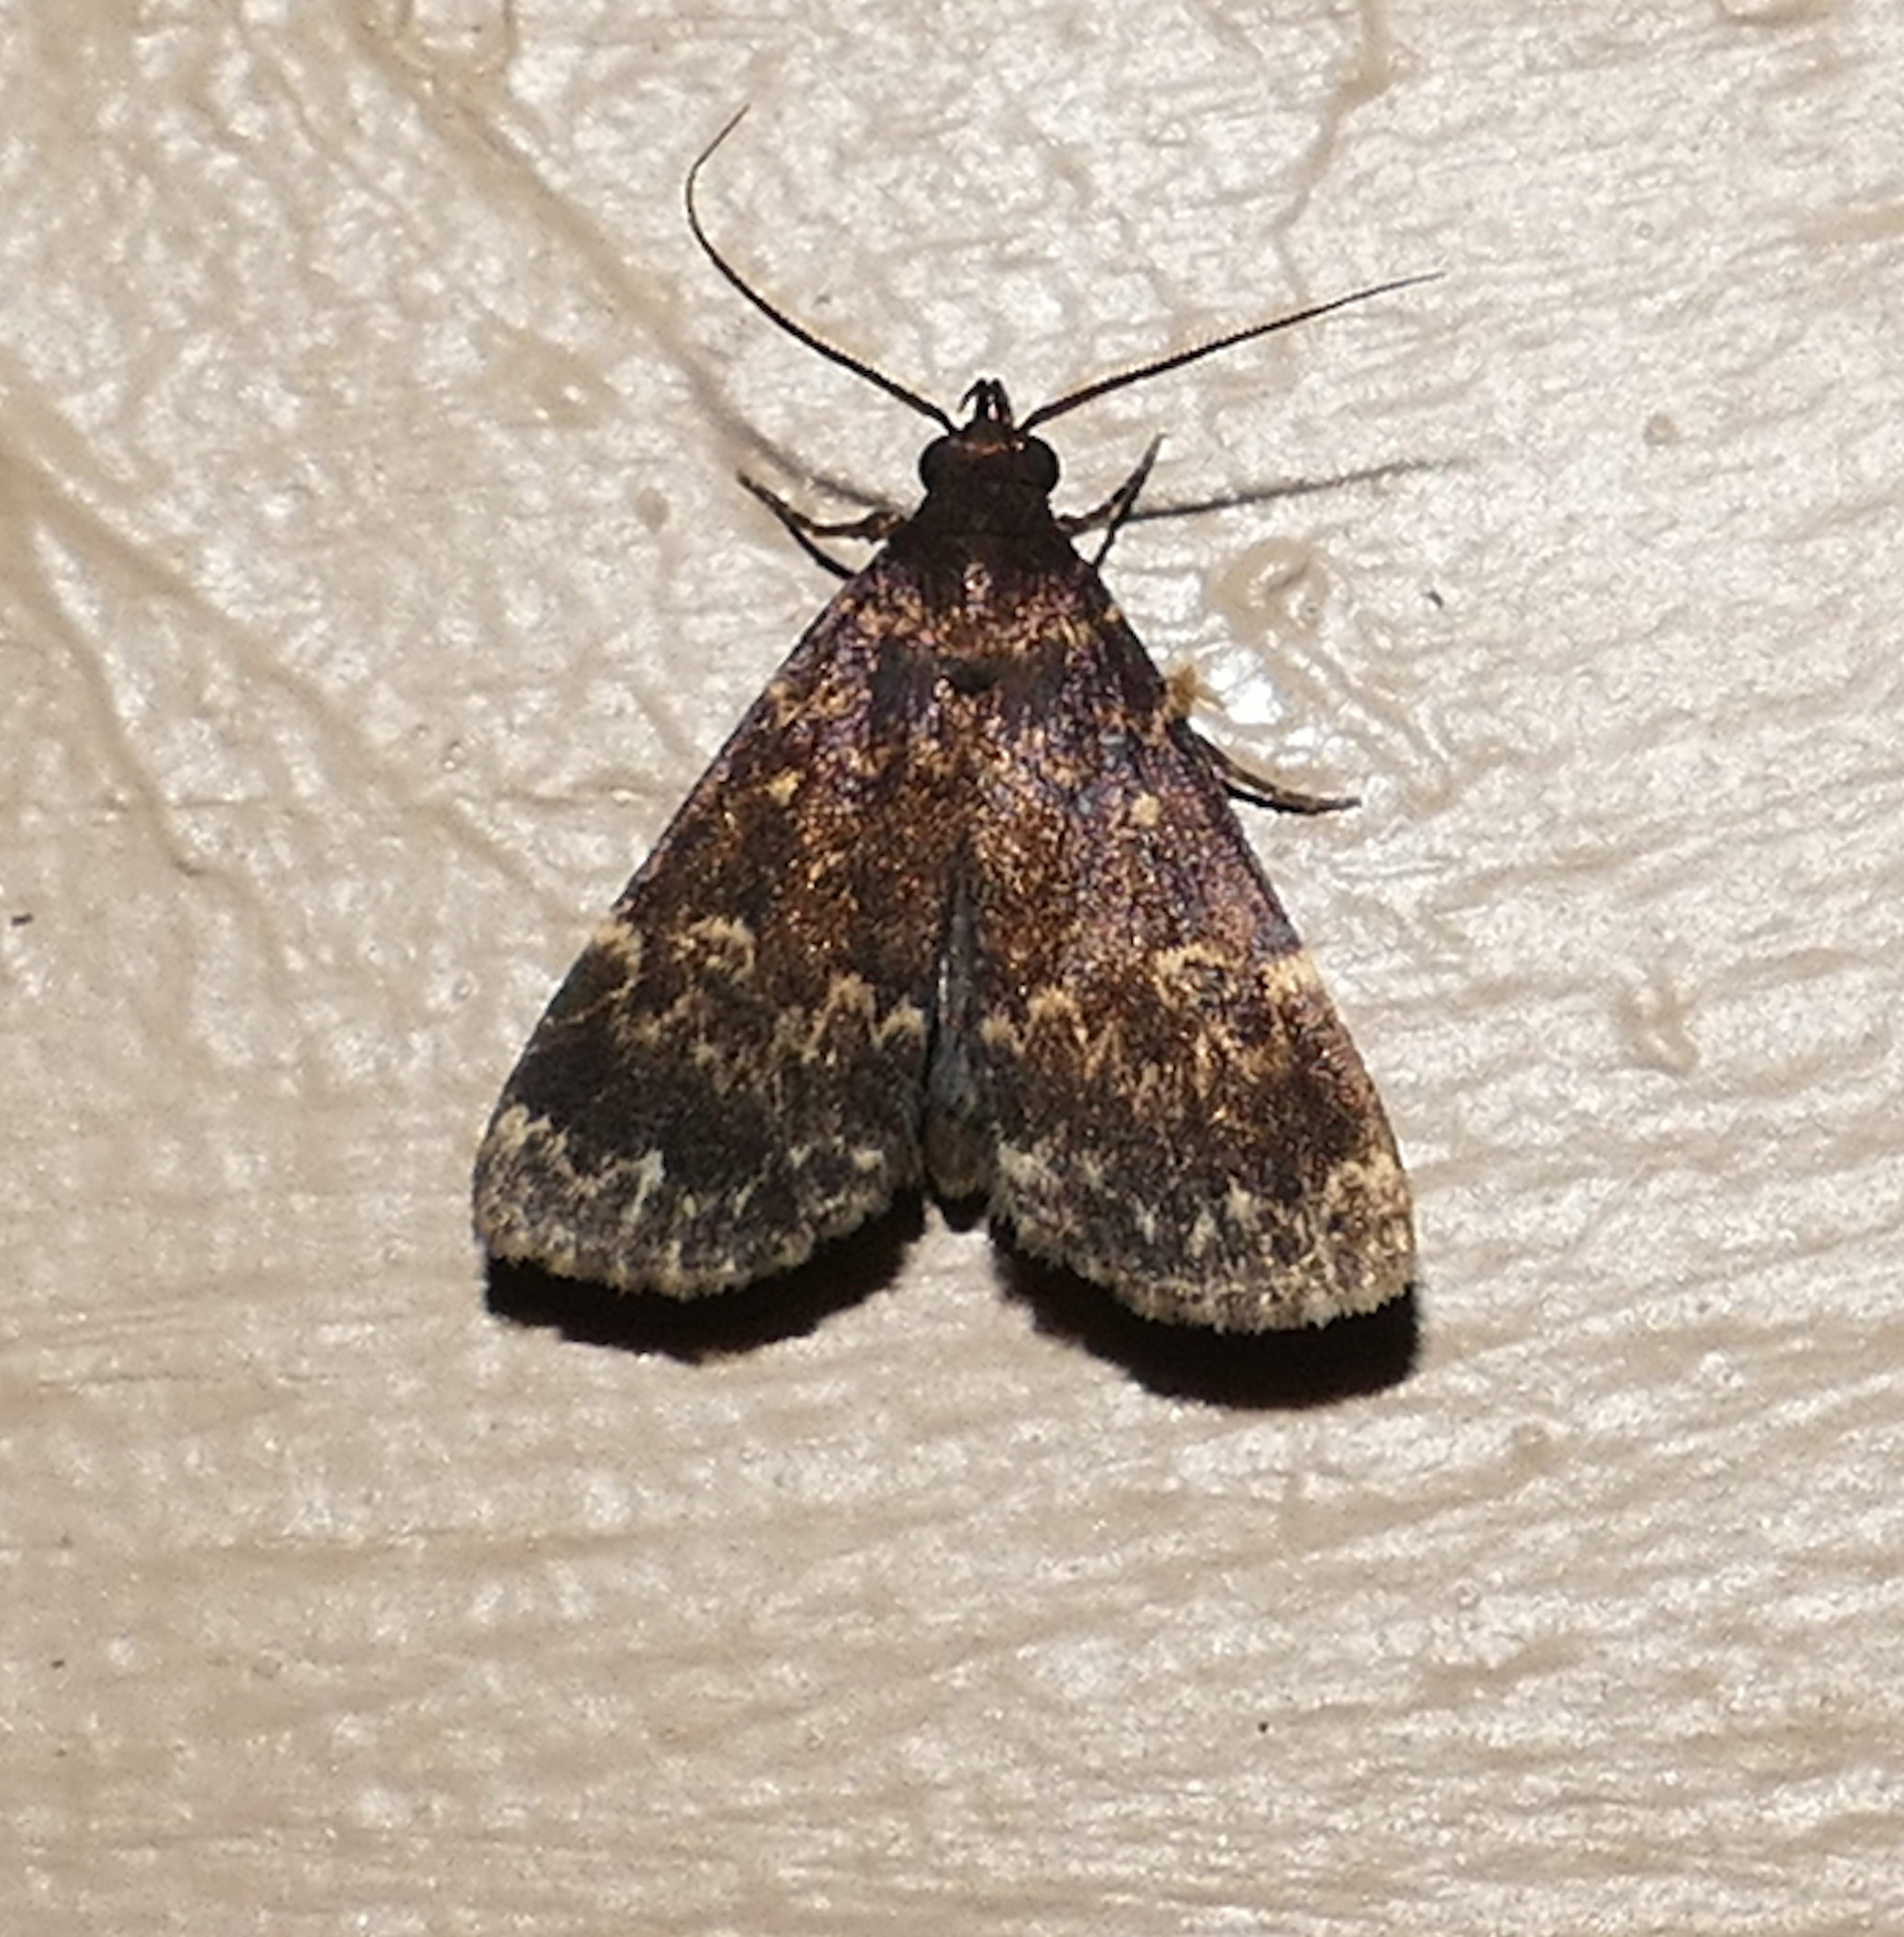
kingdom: Animalia
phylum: Arthropoda
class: Insecta
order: Lepidoptera
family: Erebidae
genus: Idia
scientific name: Idia lubricalis
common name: Twin-striped tabby
